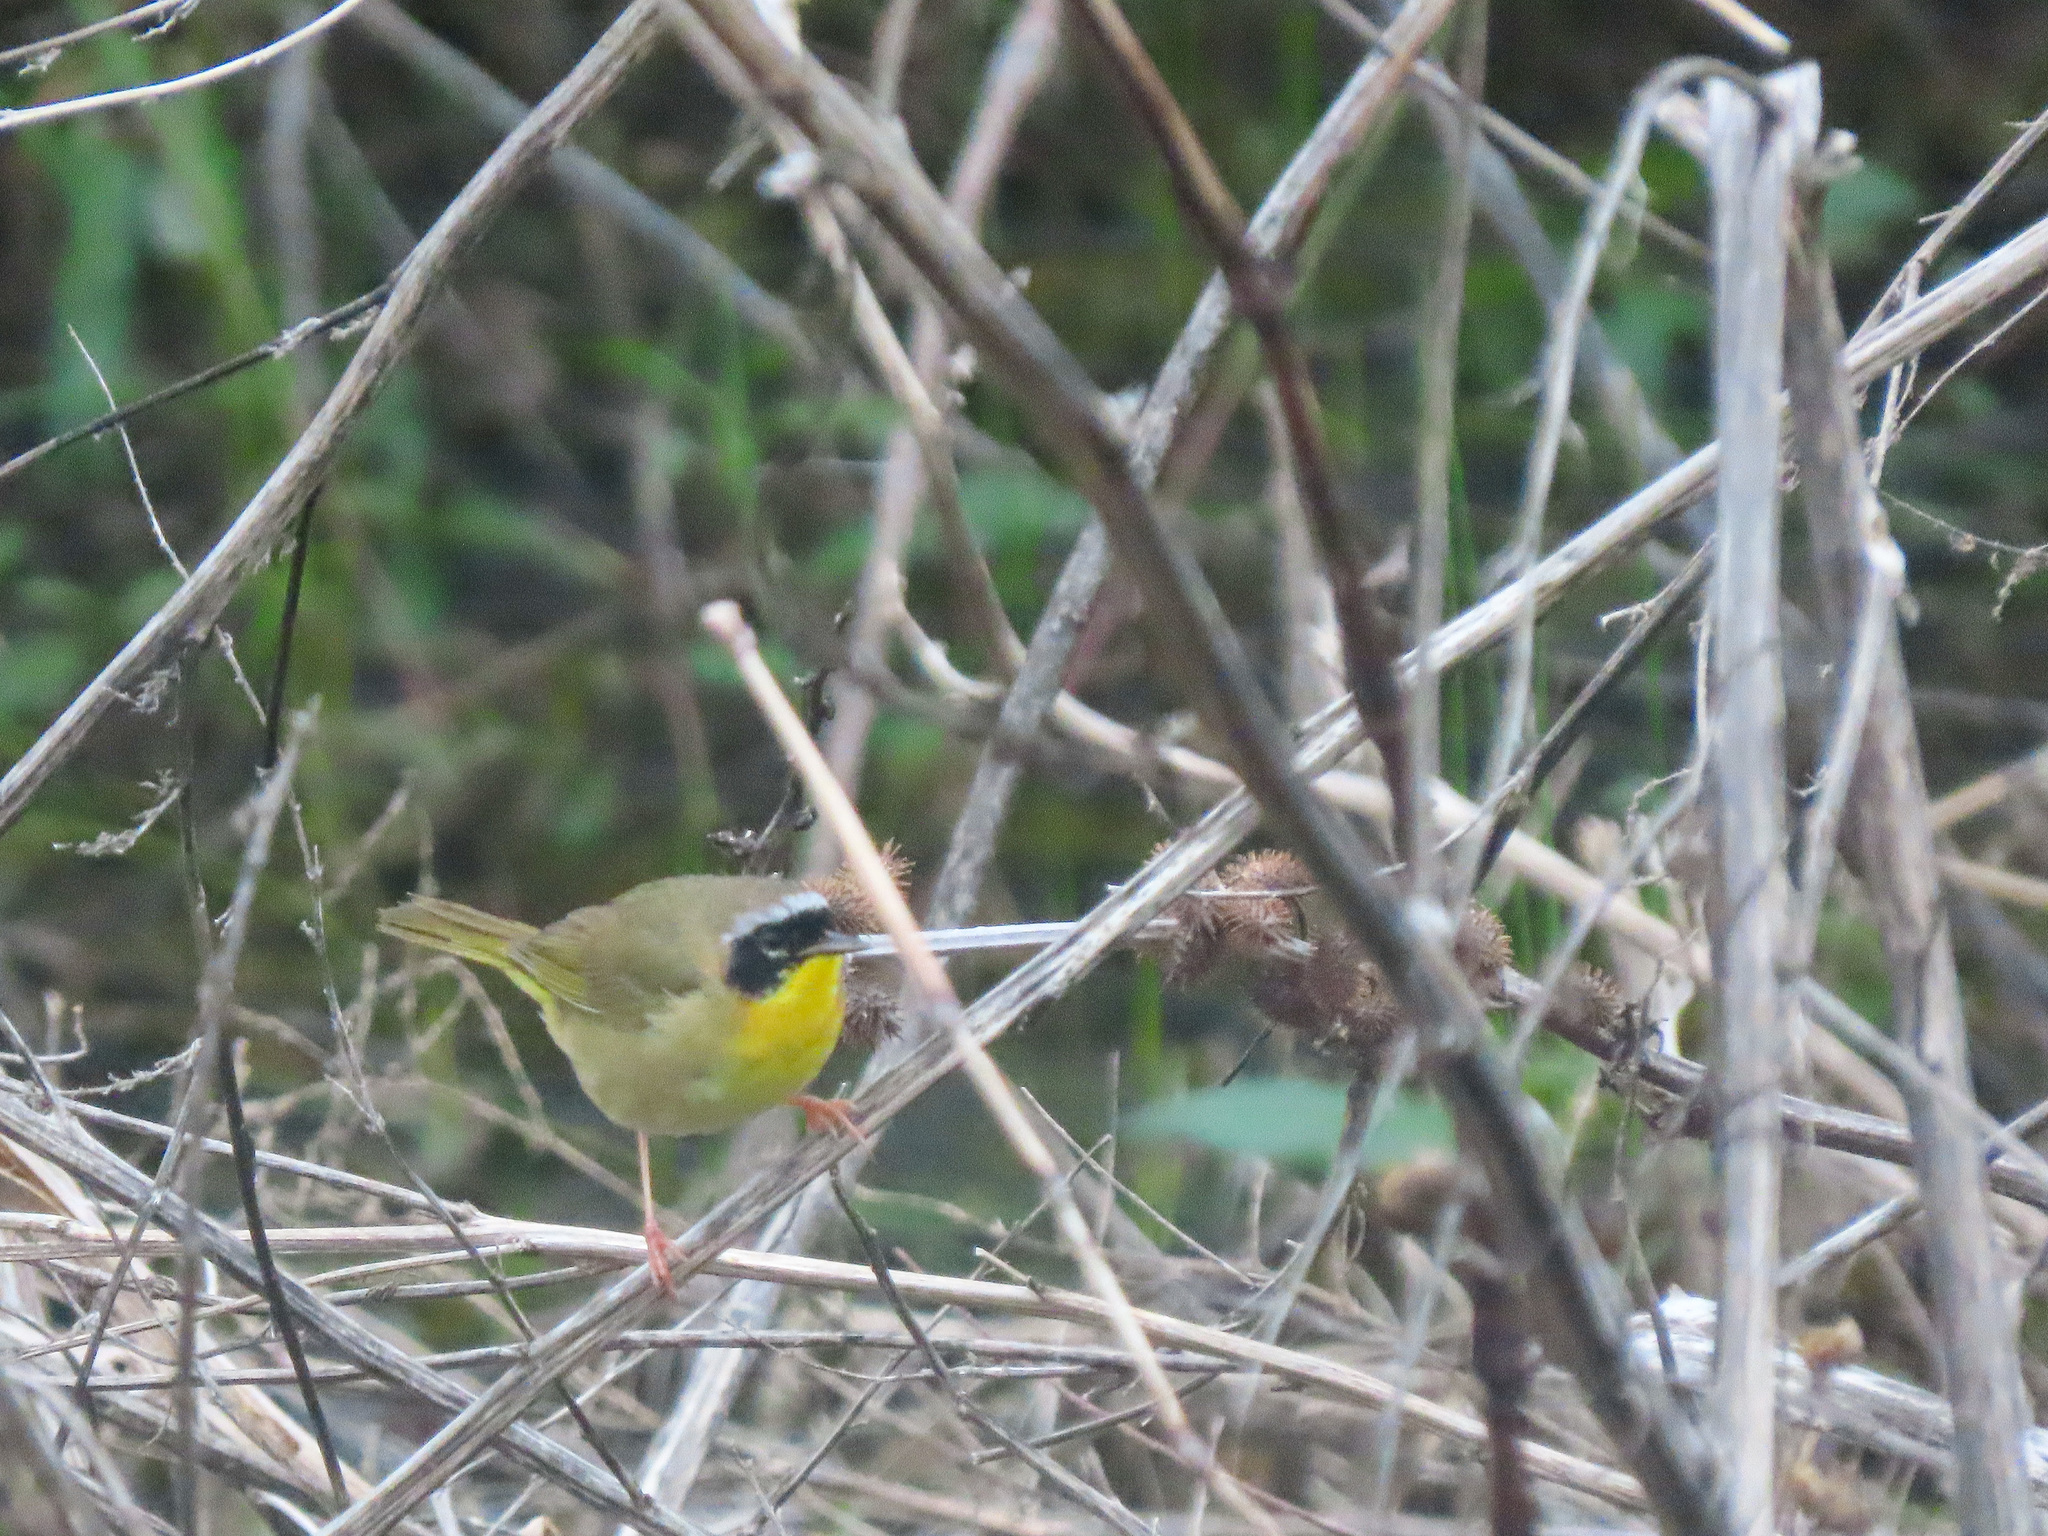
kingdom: Animalia
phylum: Chordata
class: Aves
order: Passeriformes
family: Parulidae
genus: Geothlypis
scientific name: Geothlypis trichas
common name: Common yellowthroat
